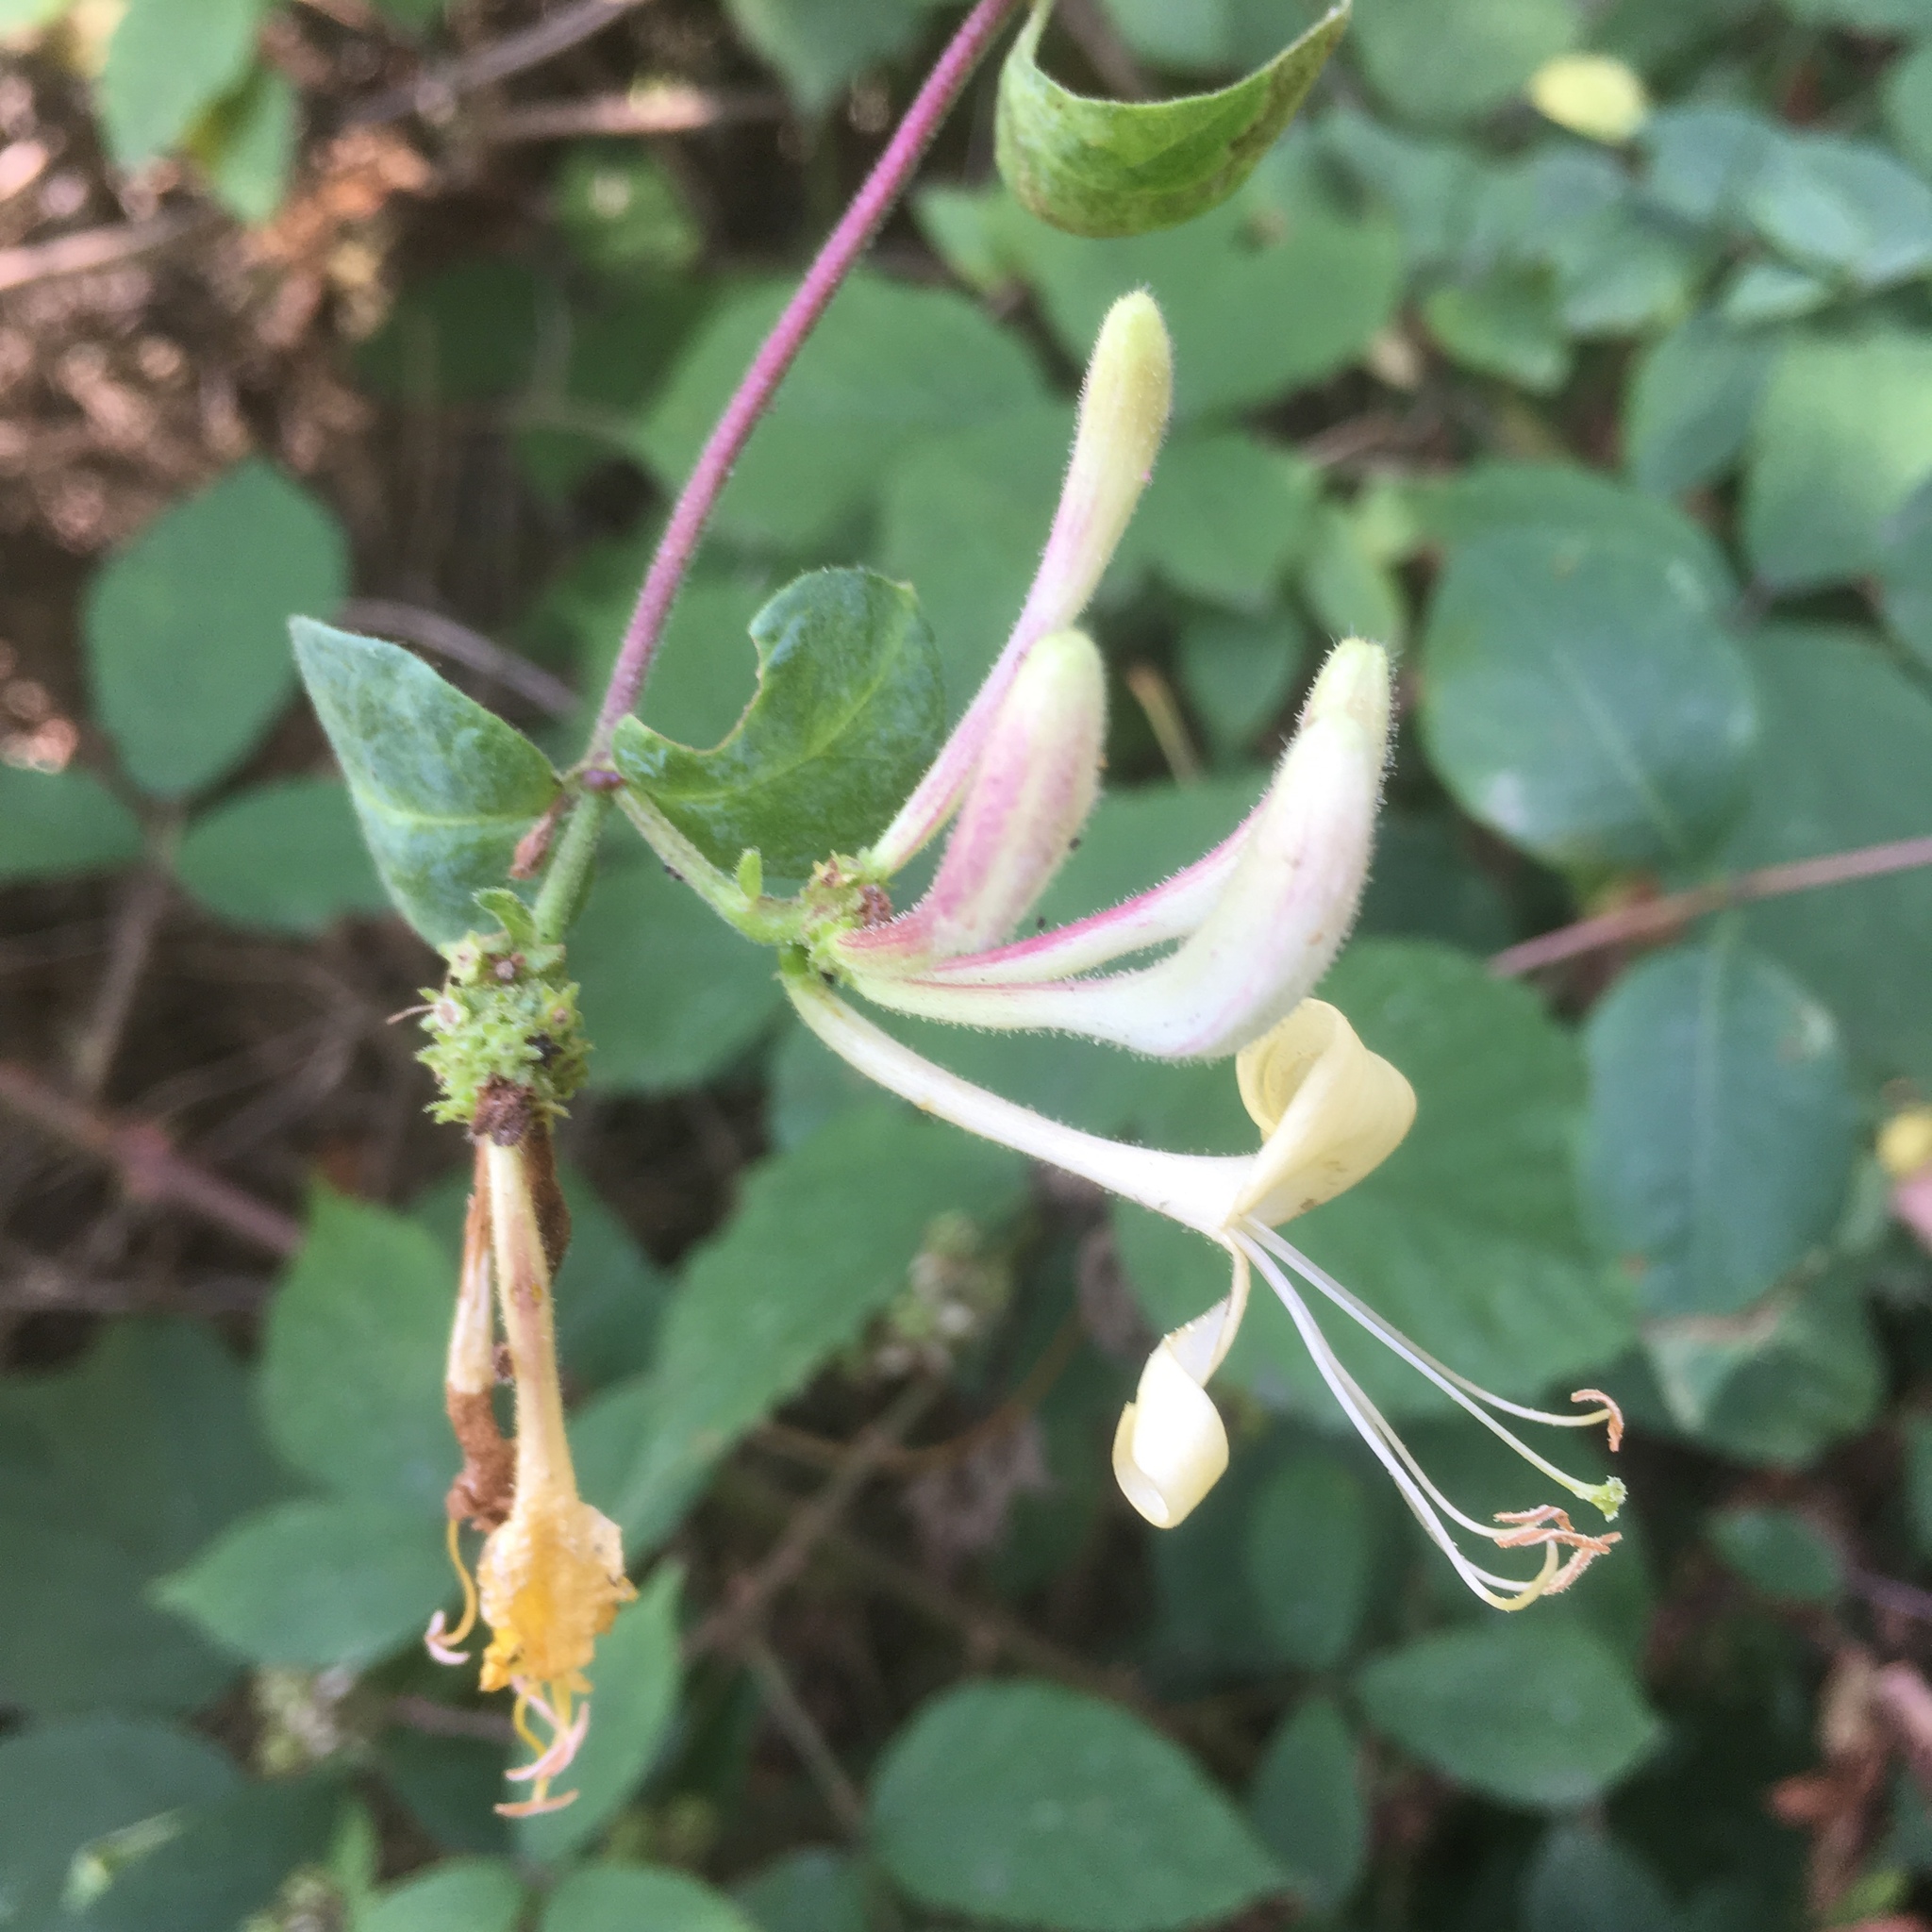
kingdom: Plantae
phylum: Tracheophyta
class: Magnoliopsida
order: Dipsacales
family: Caprifoliaceae
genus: Lonicera
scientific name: Lonicera periclymenum
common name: European honeysuckle
